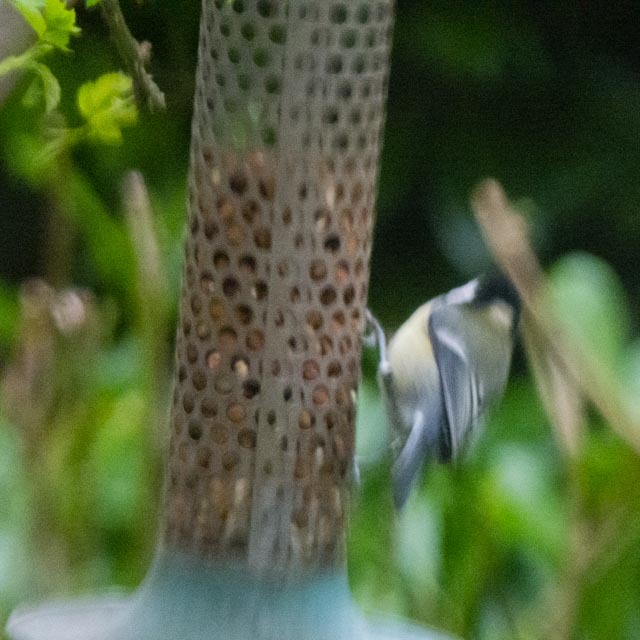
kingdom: Animalia
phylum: Chordata
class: Aves
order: Passeriformes
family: Paridae
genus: Parus
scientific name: Parus major
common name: Great tit
